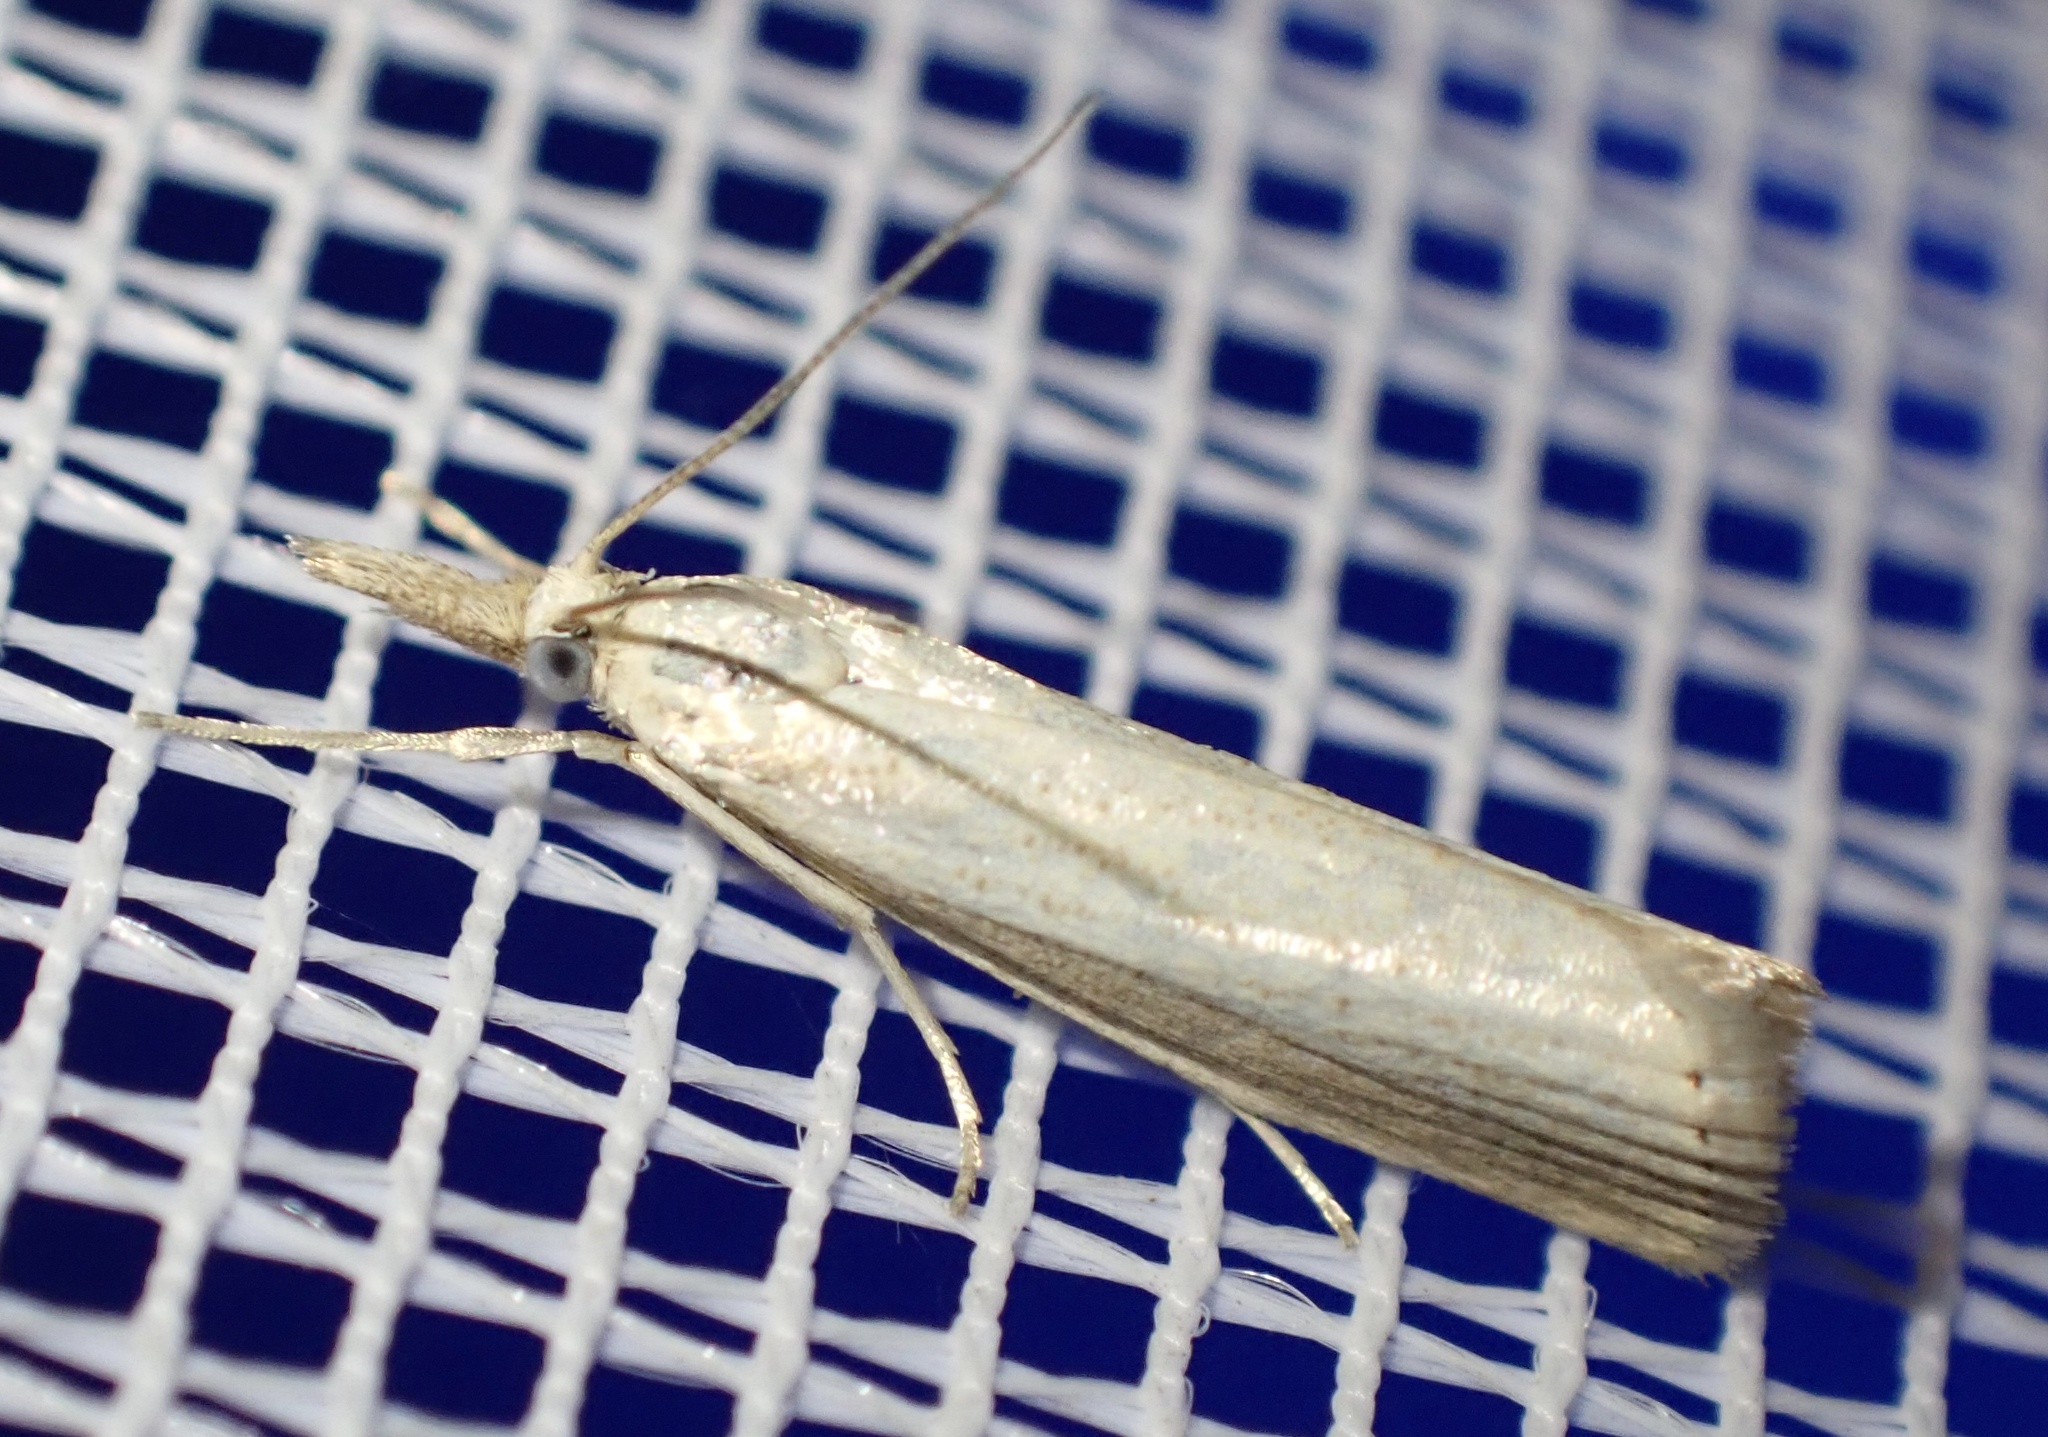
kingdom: Animalia
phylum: Arthropoda
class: Insecta
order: Lepidoptera
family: Crambidae
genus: Agriphila
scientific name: Agriphila straminella
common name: Straw grass-veneer
